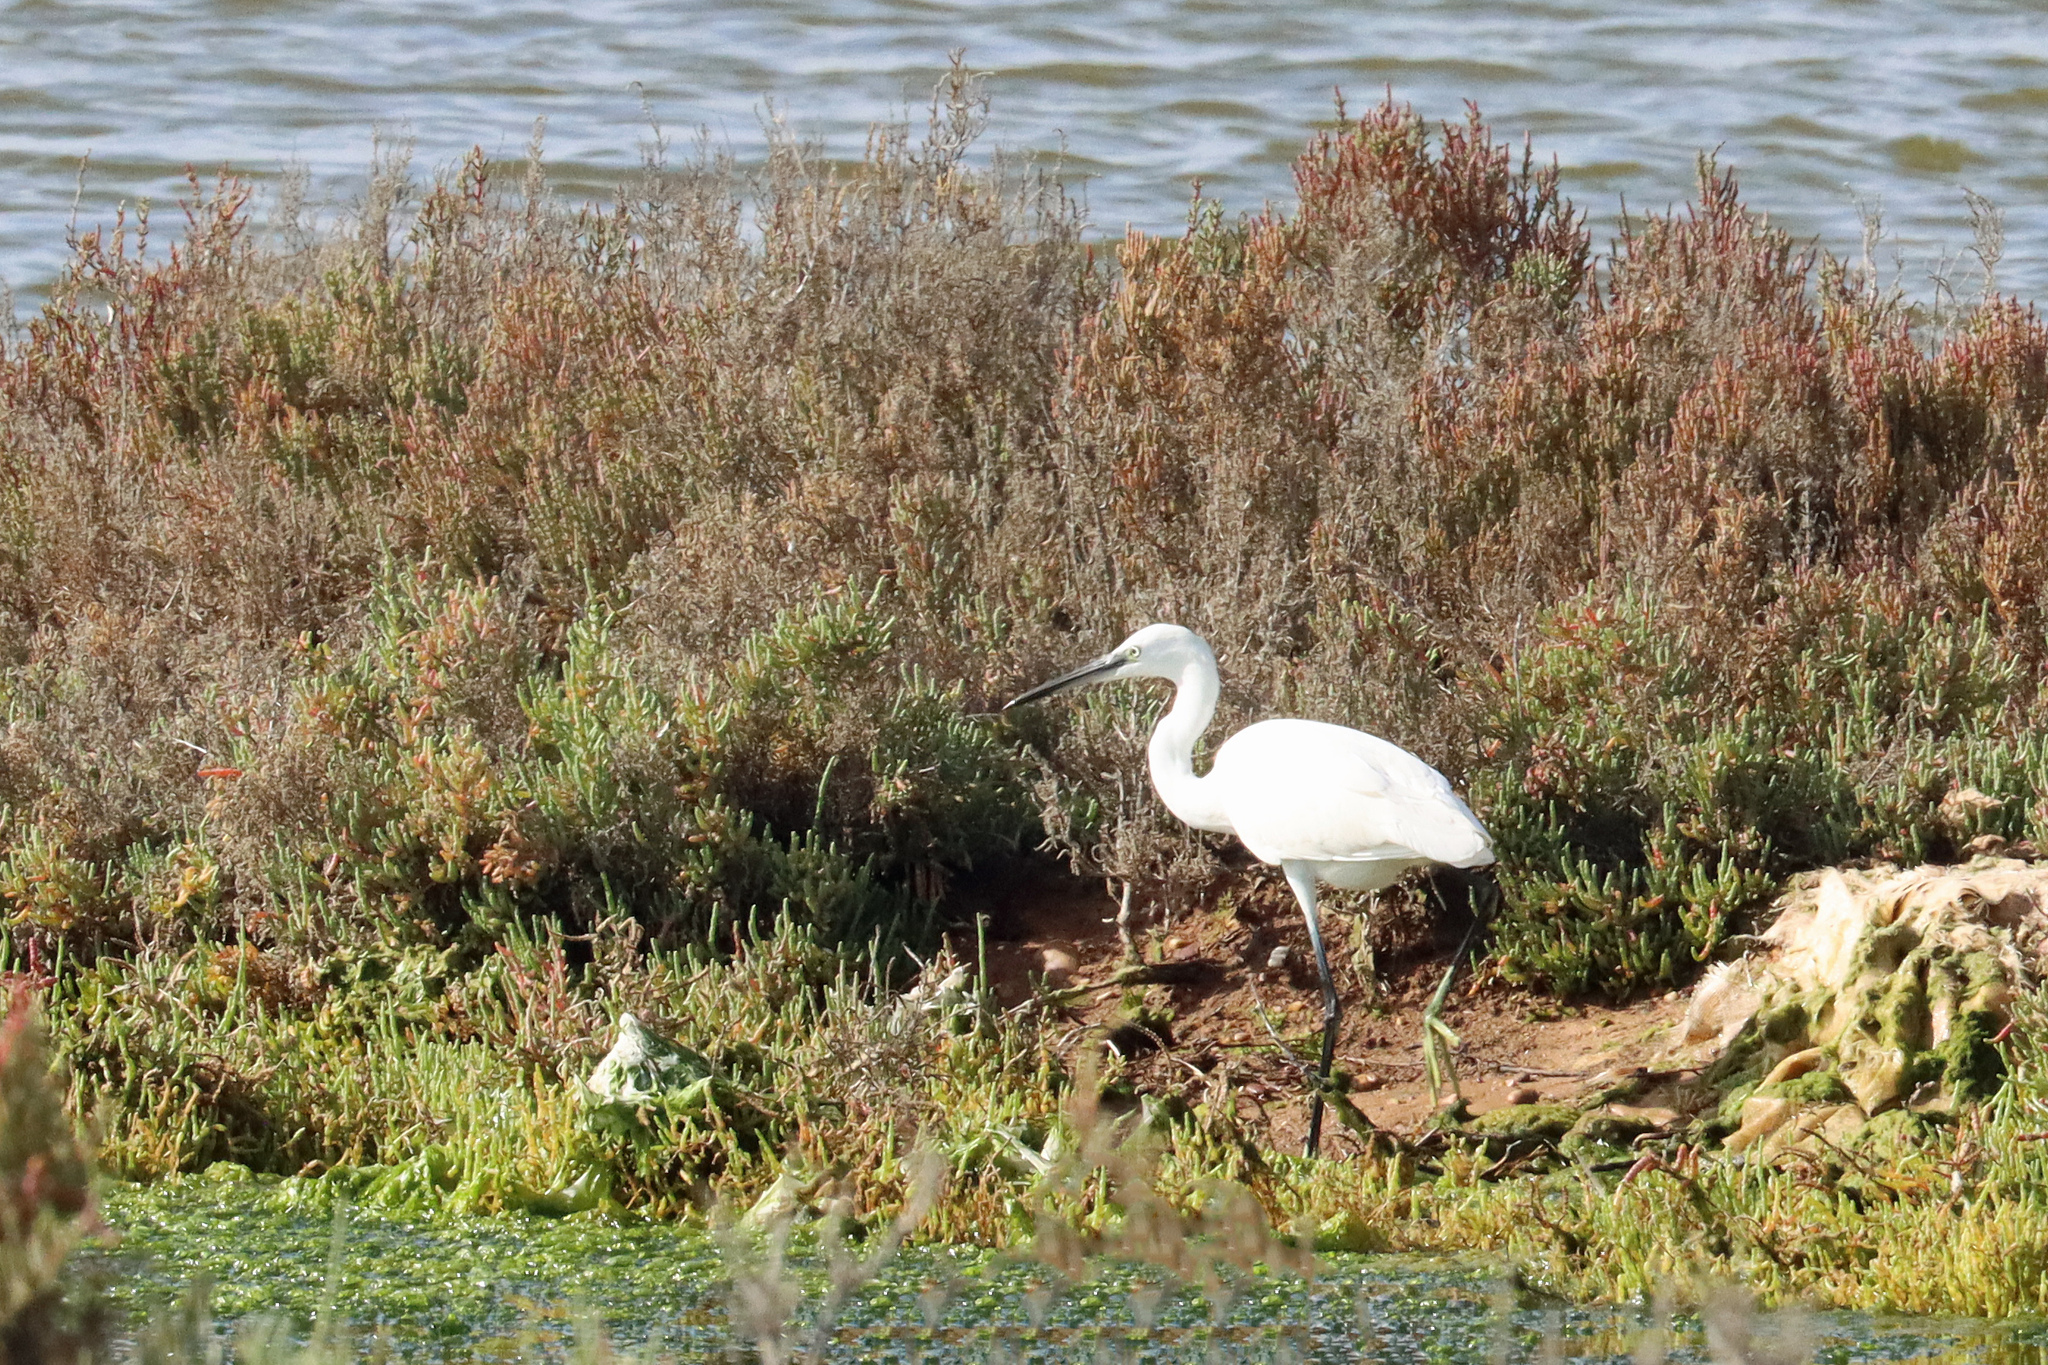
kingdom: Animalia
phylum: Chordata
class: Aves
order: Pelecaniformes
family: Ardeidae
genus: Egretta
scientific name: Egretta garzetta
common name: Little egret
